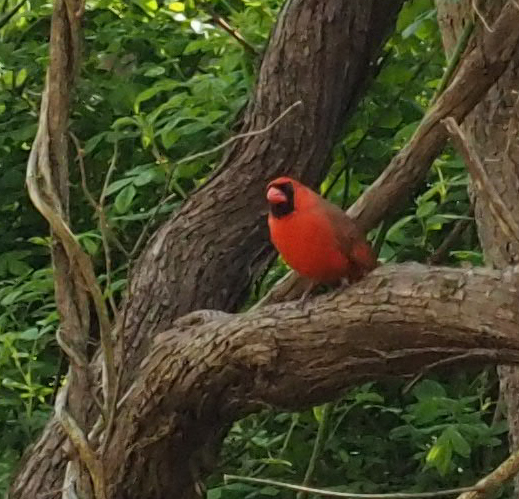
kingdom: Animalia
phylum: Chordata
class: Aves
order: Passeriformes
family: Cardinalidae
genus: Cardinalis
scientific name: Cardinalis cardinalis
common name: Northern cardinal
